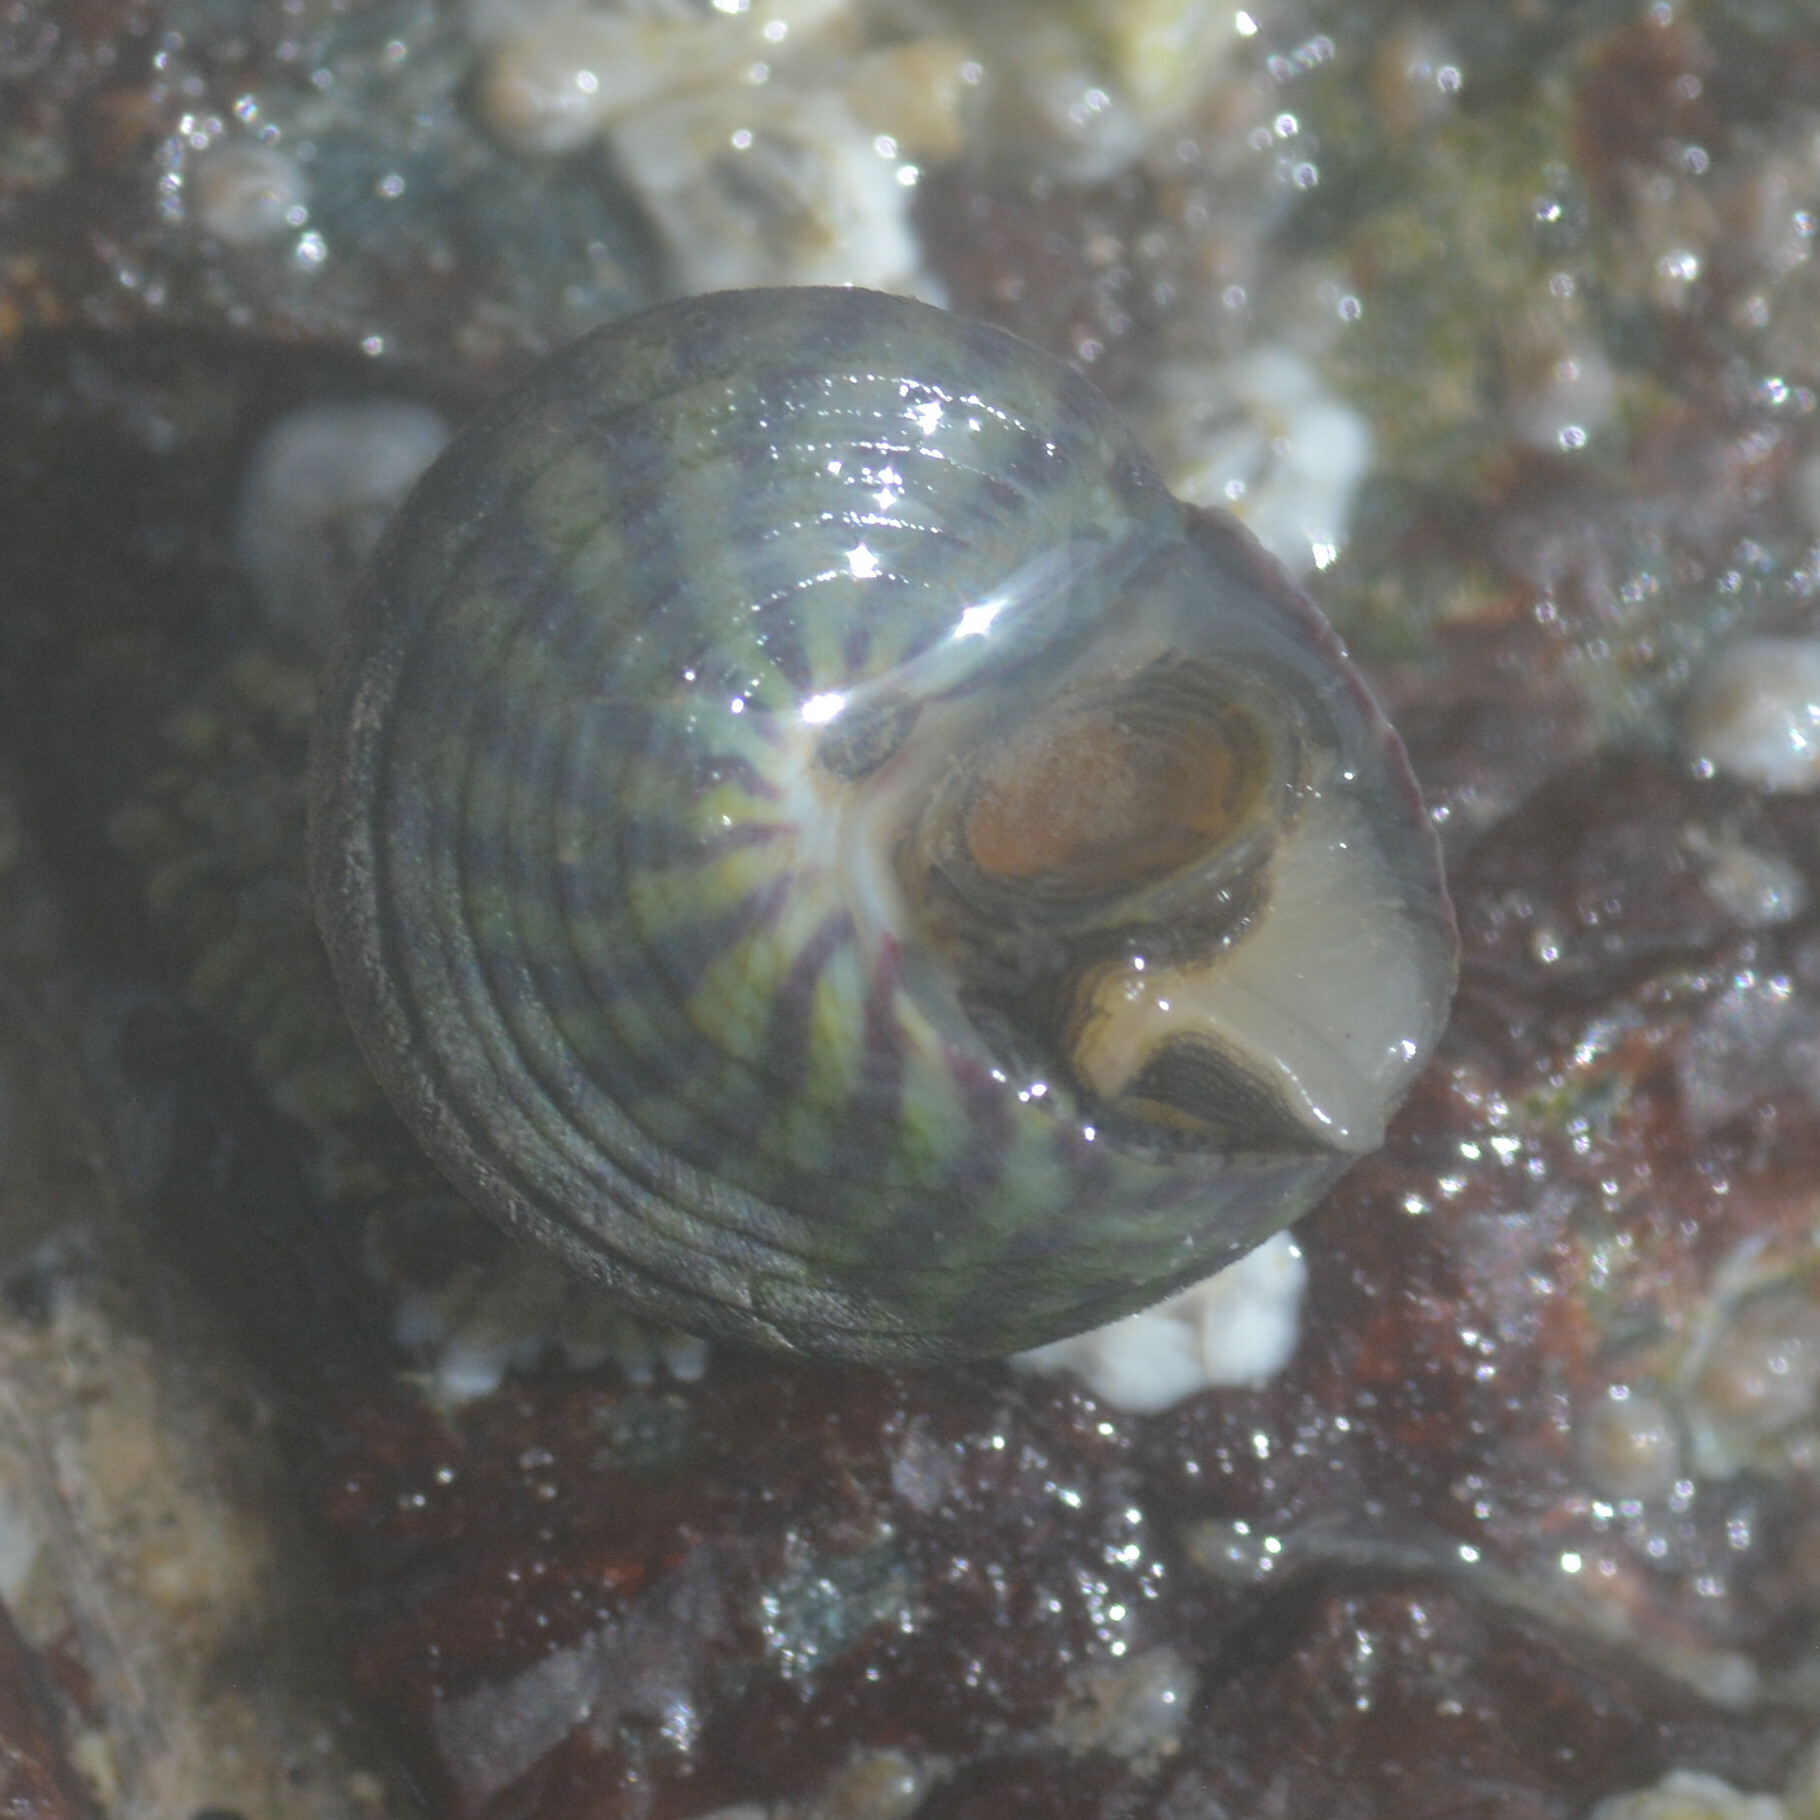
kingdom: Animalia
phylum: Mollusca
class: Gastropoda
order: Trochida
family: Trochidae
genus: Steromphala
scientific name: Steromphala umbilicalis
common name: Flat top shell
